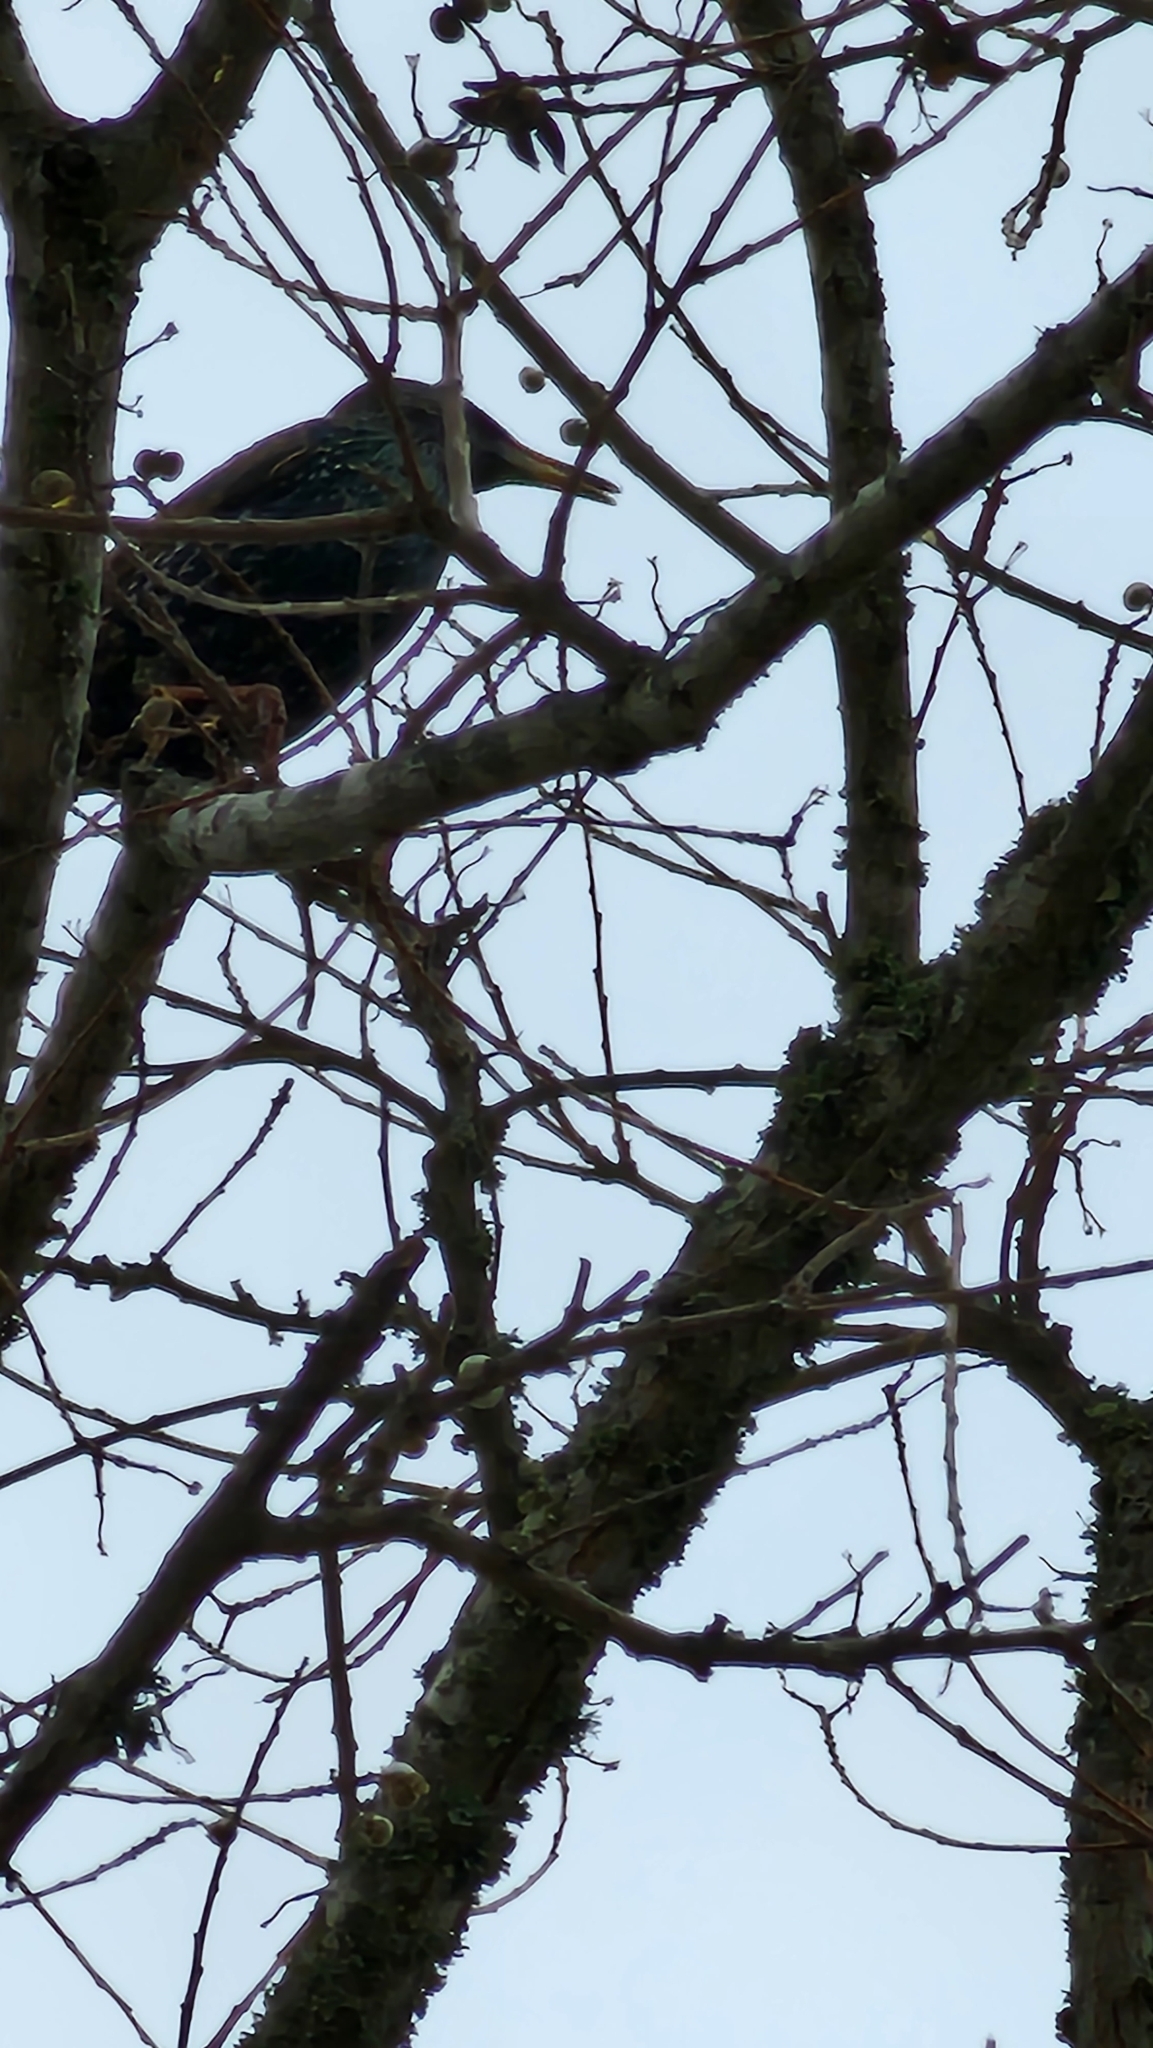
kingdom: Animalia
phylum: Chordata
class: Aves
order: Passeriformes
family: Sturnidae
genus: Sturnus
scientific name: Sturnus vulgaris
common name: Common starling
